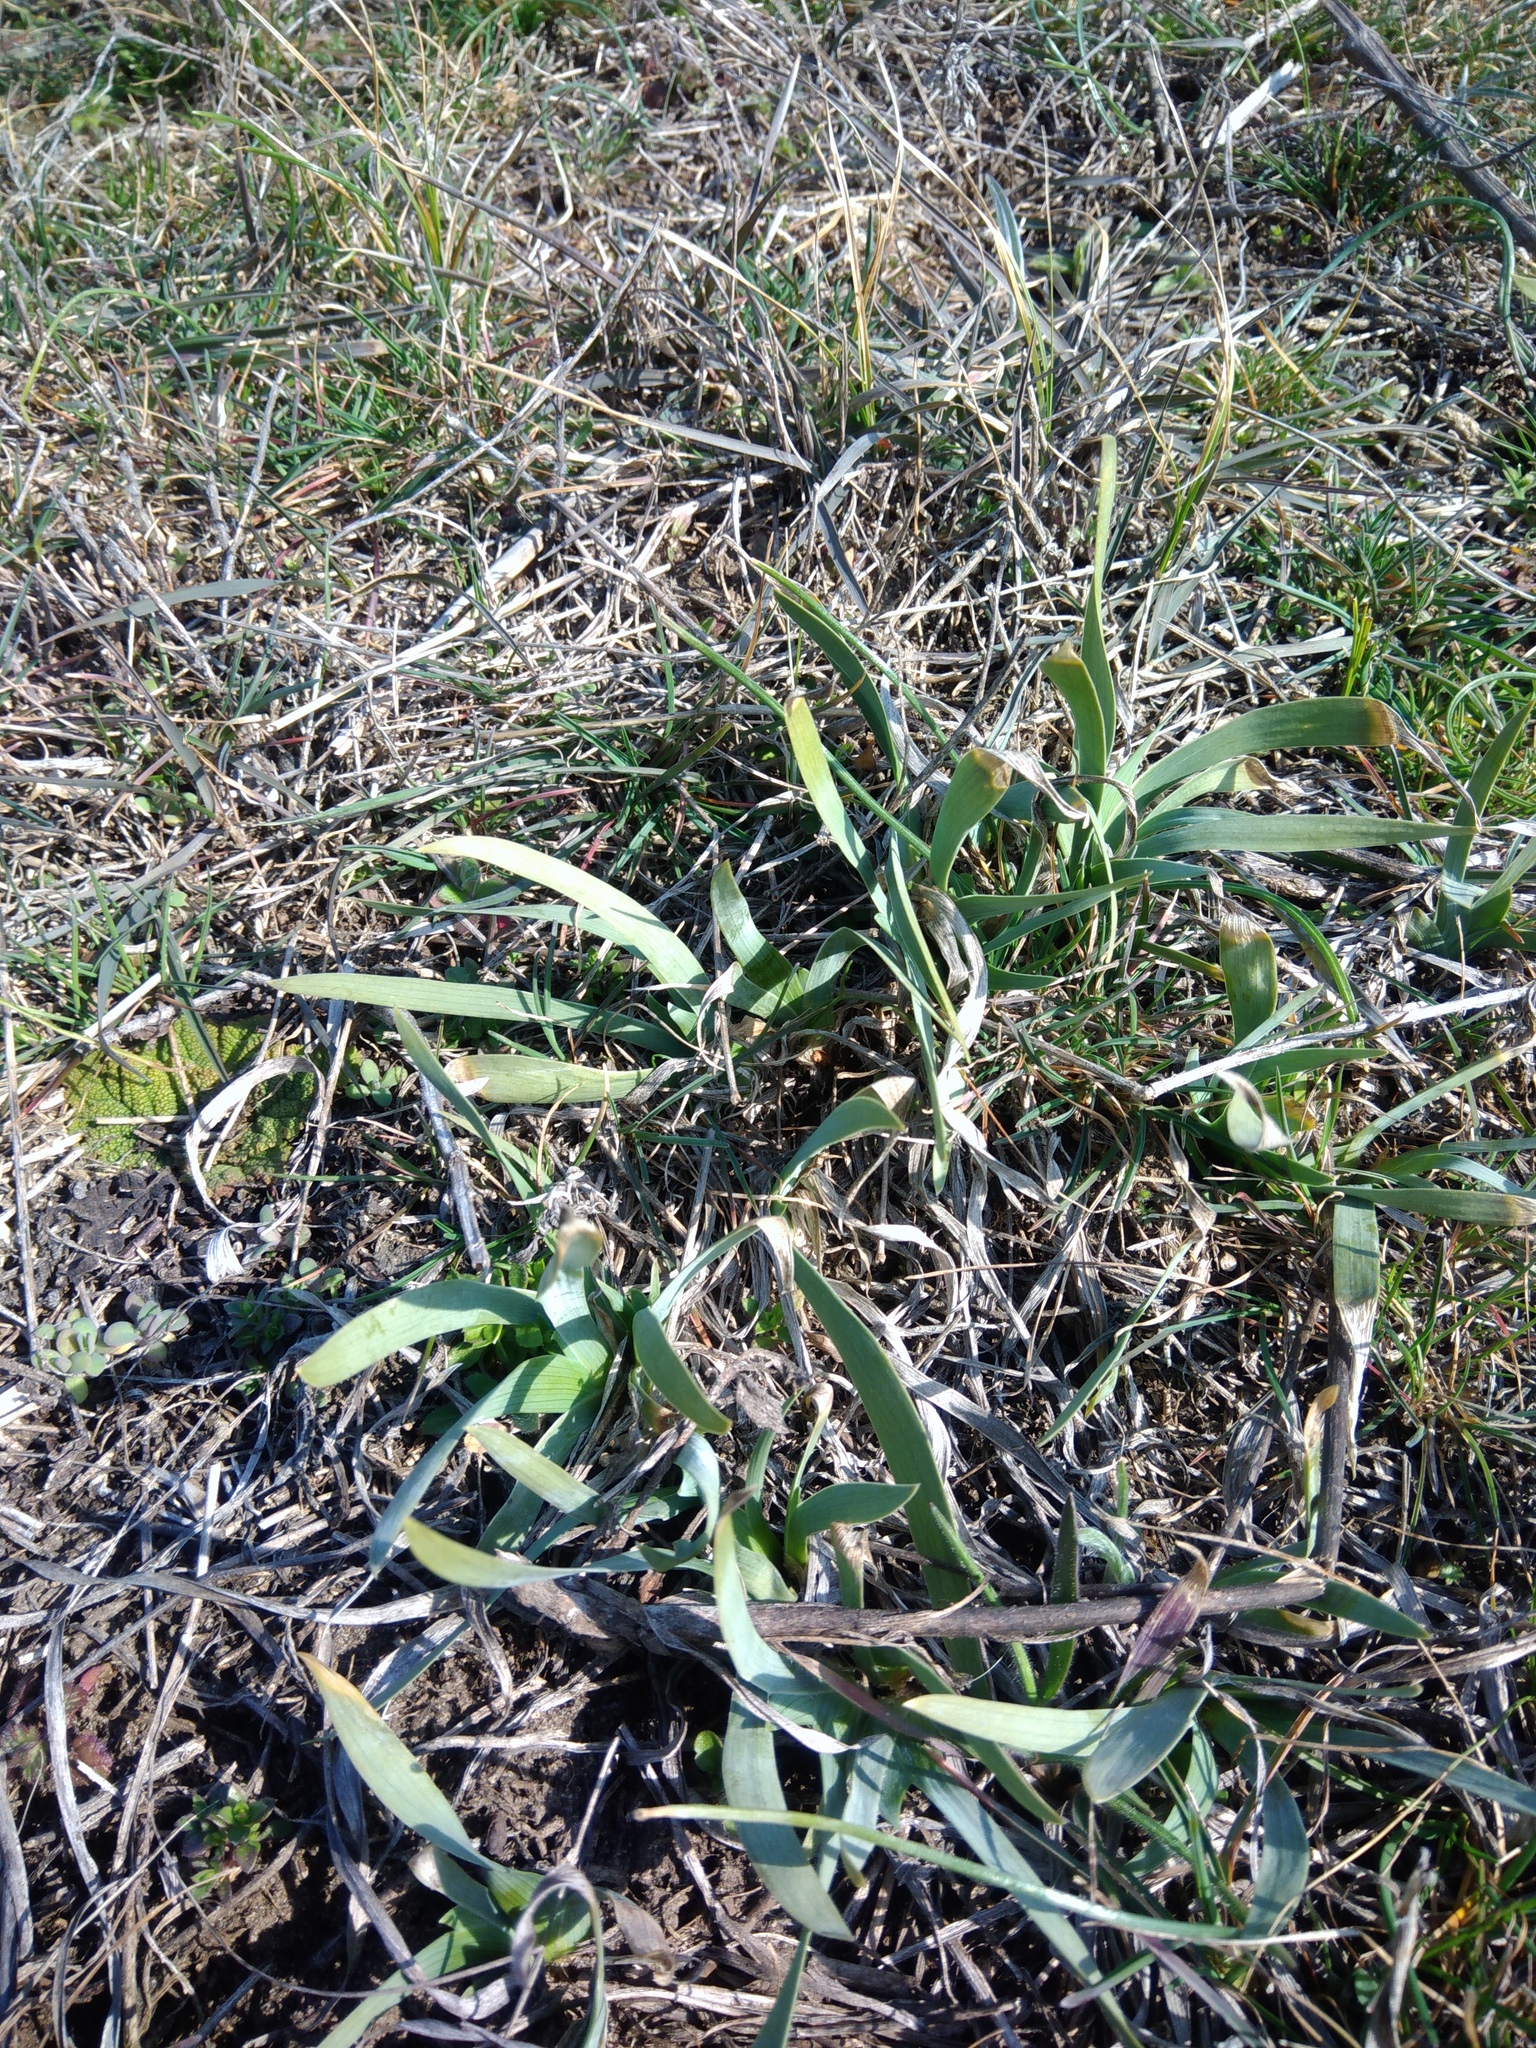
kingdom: Plantae
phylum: Tracheophyta
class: Liliopsida
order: Asparagales
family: Iridaceae
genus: Iris
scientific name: Iris pumila
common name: Dwarf iris
